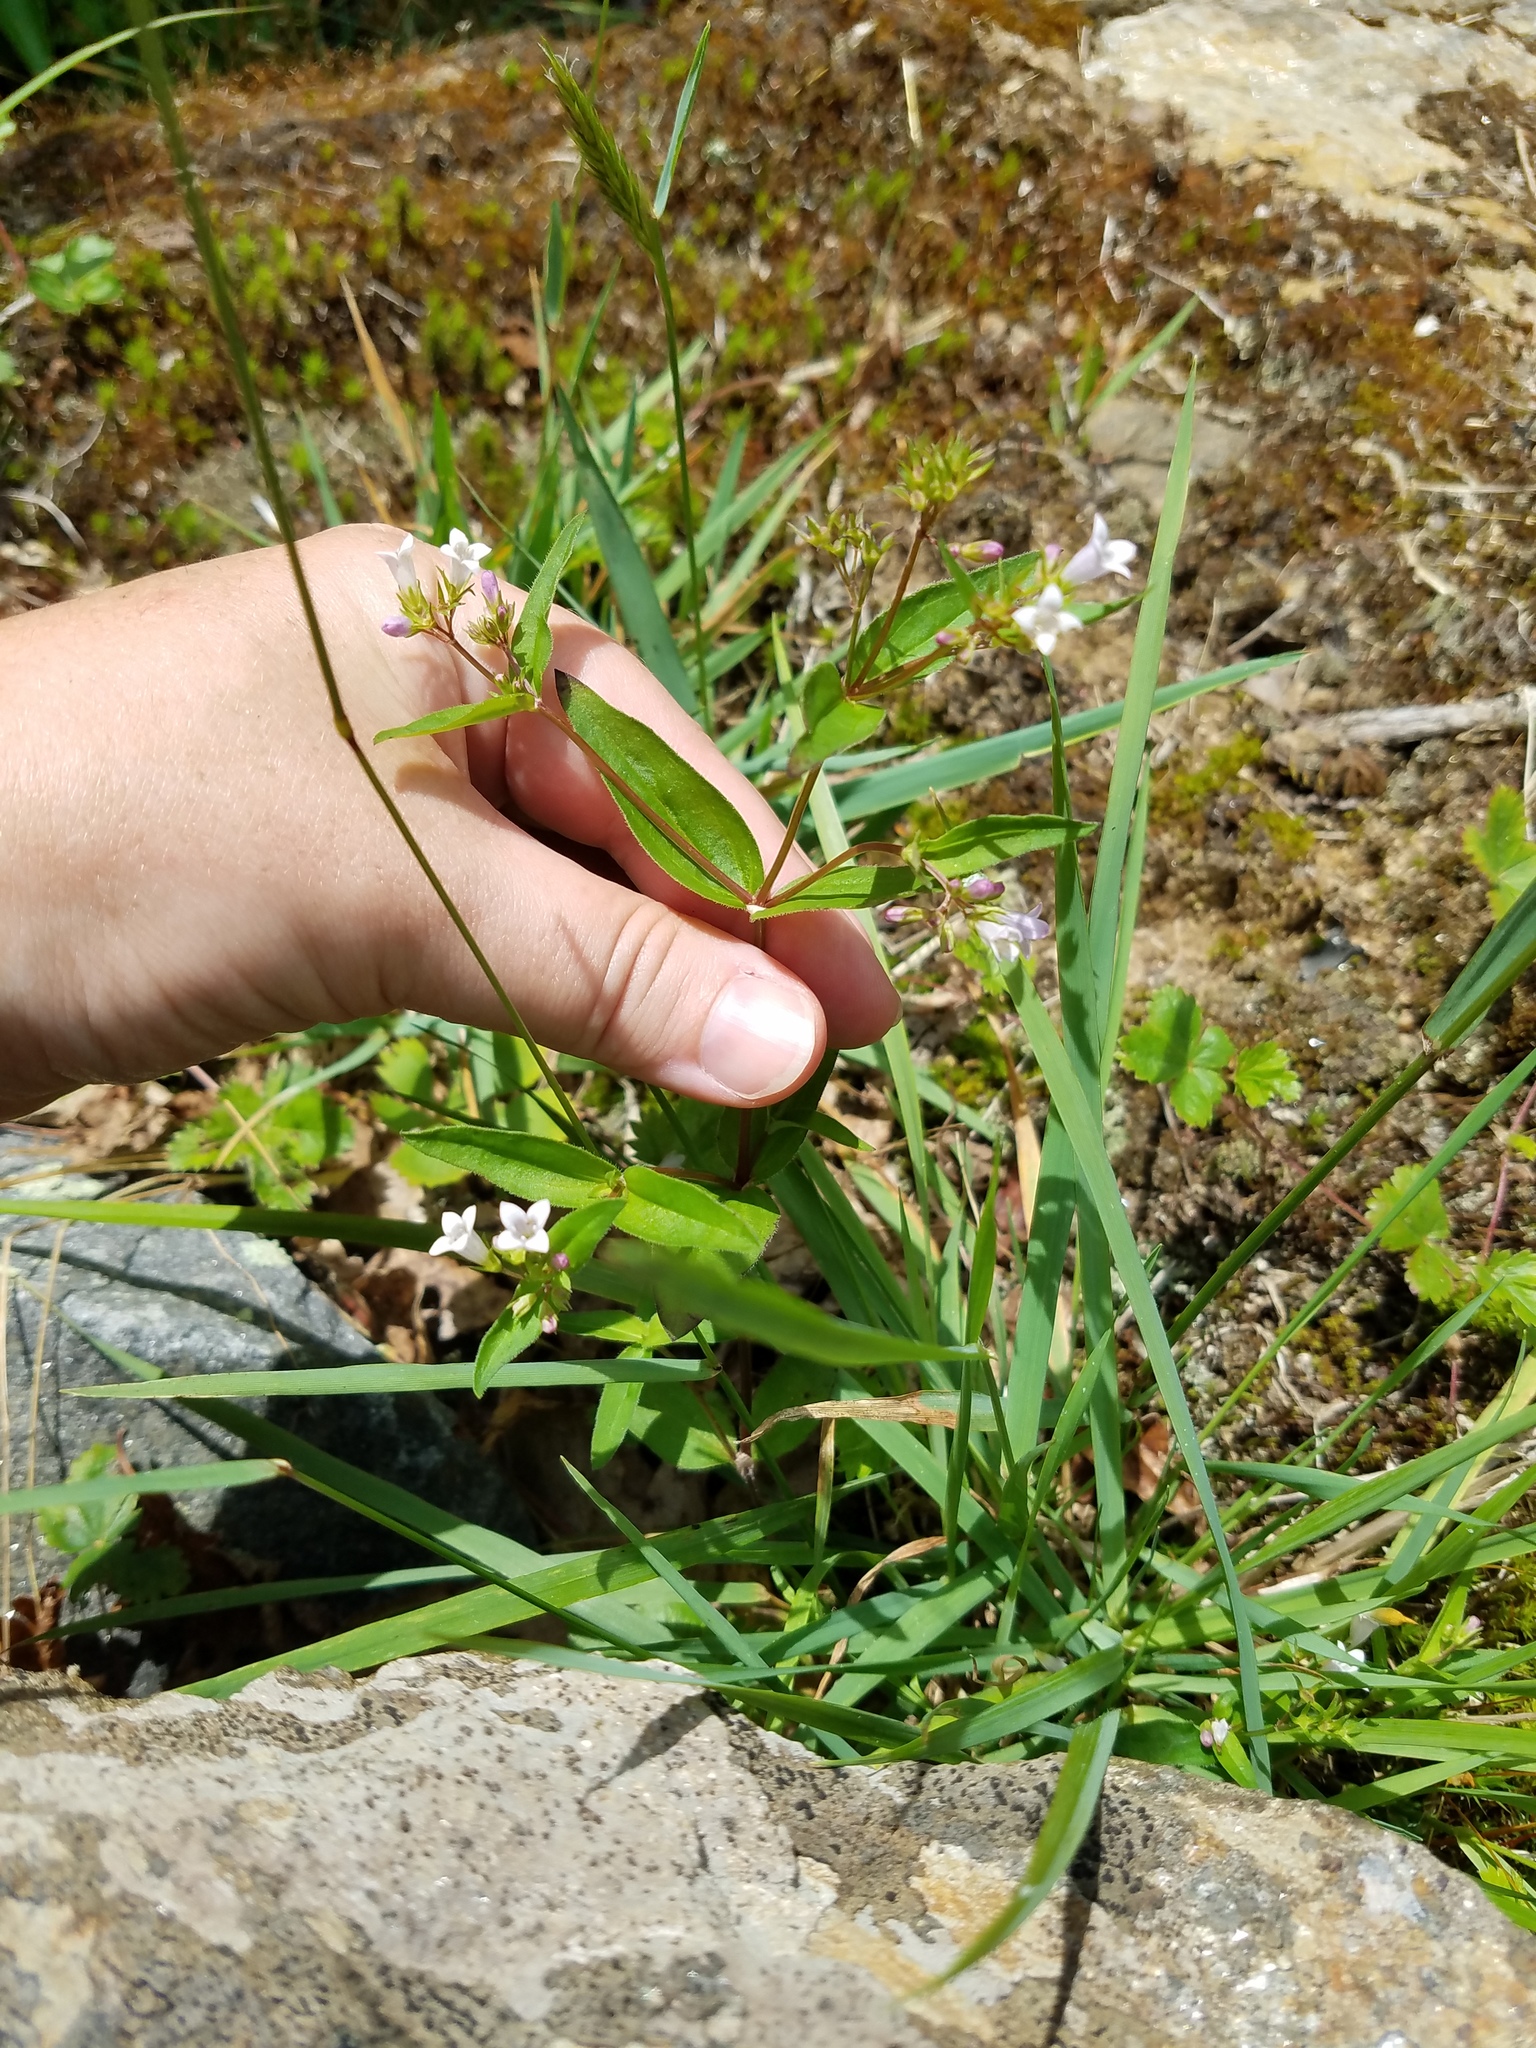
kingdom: Plantae
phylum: Tracheophyta
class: Magnoliopsida
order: Gentianales
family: Rubiaceae
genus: Houstonia
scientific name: Houstonia purpurea
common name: Summer bluet
